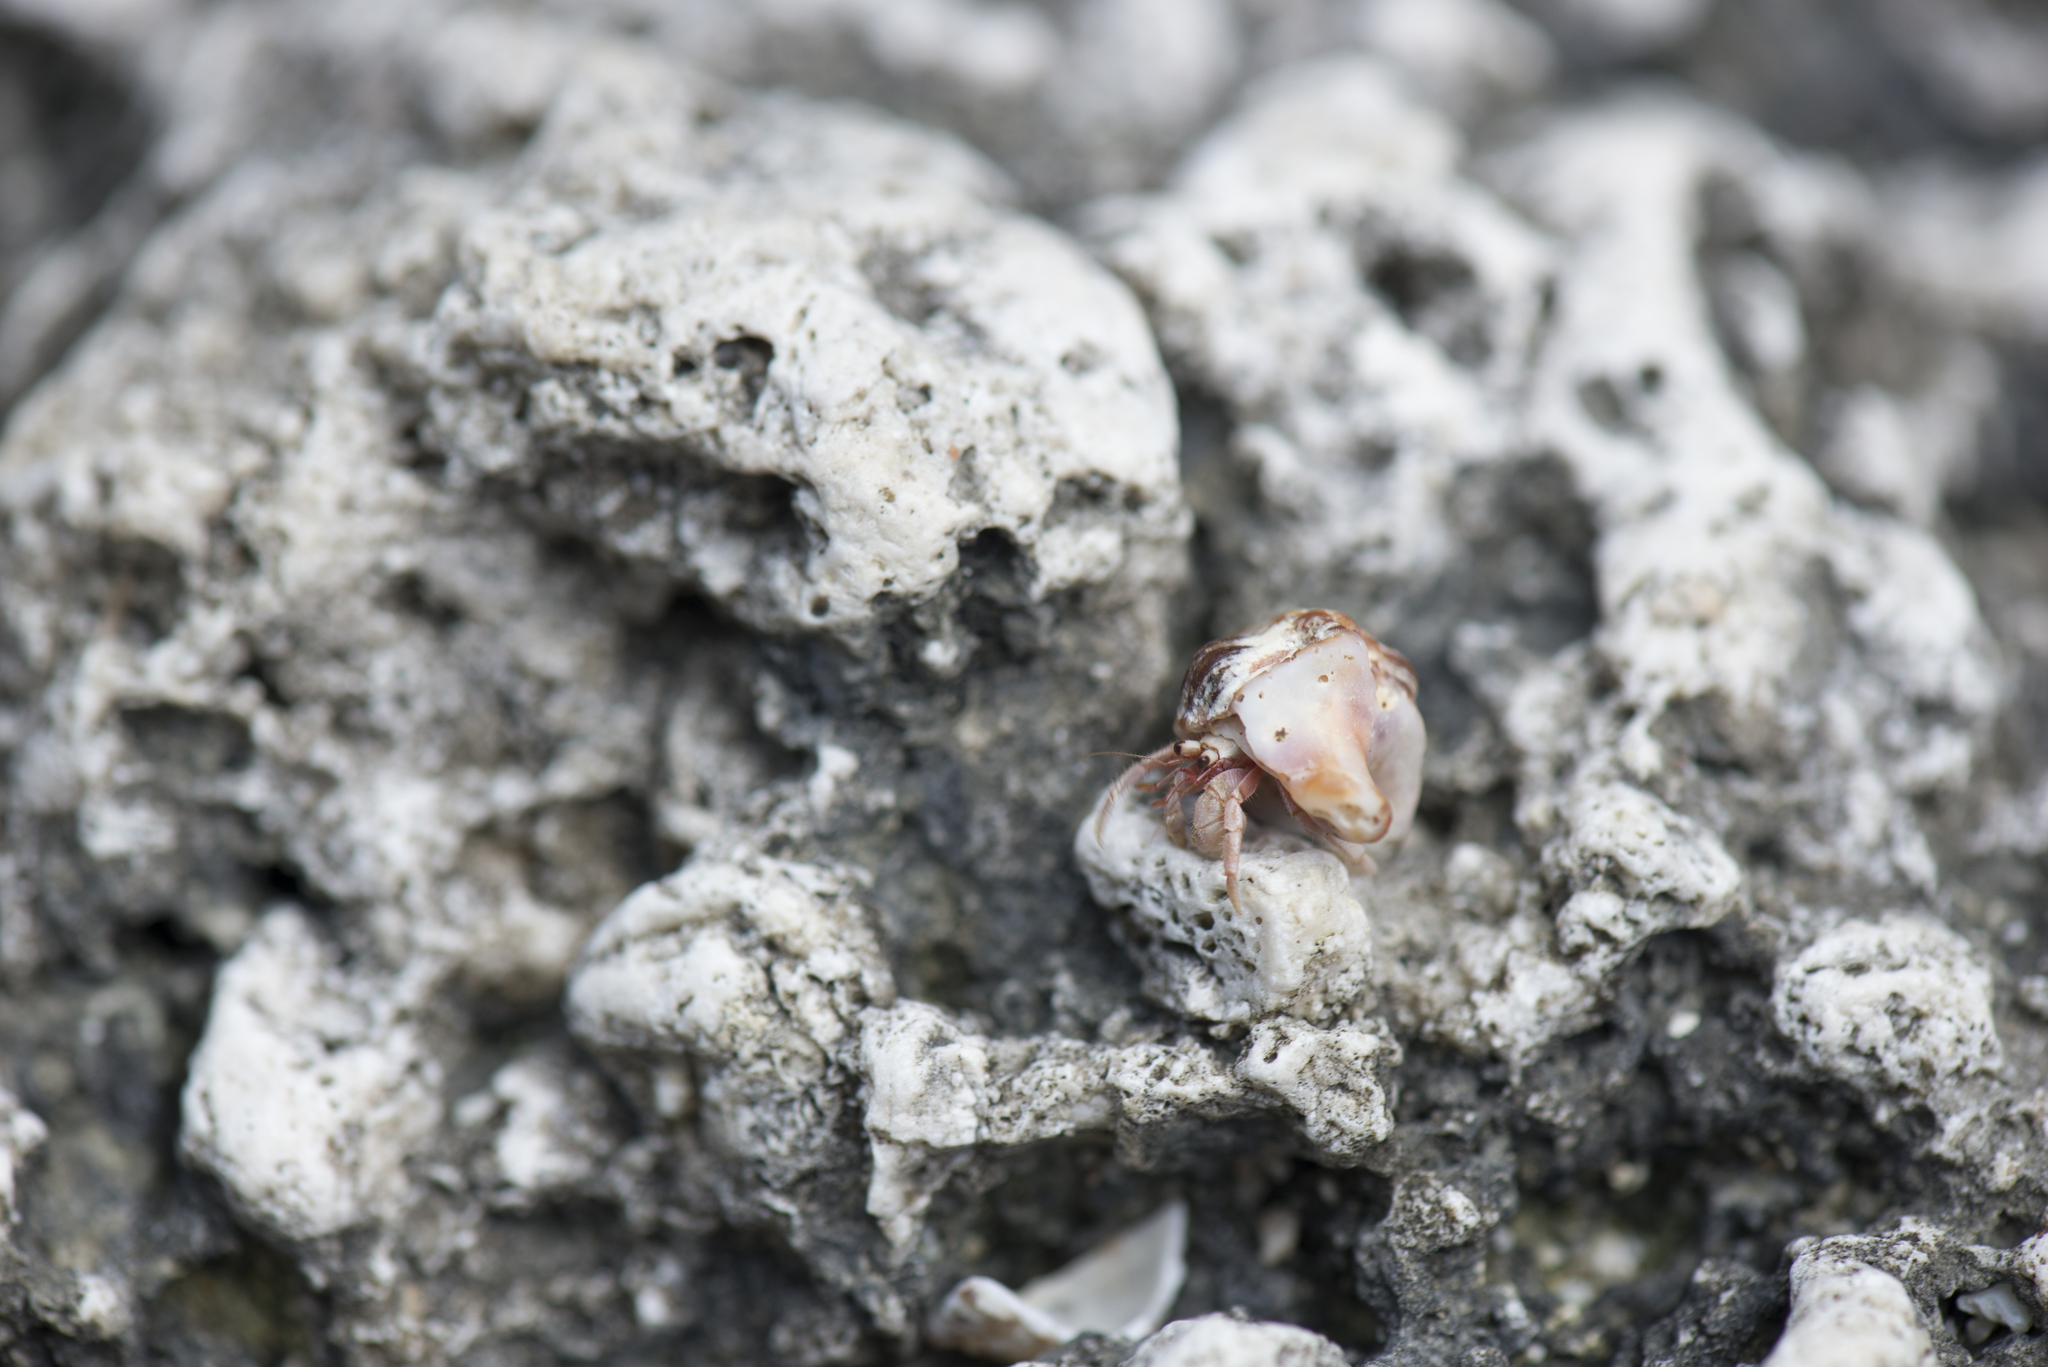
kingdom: Animalia
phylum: Arthropoda
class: Malacostraca
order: Decapoda
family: Coenobitidae
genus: Coenobita
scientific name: Coenobita rugosus
